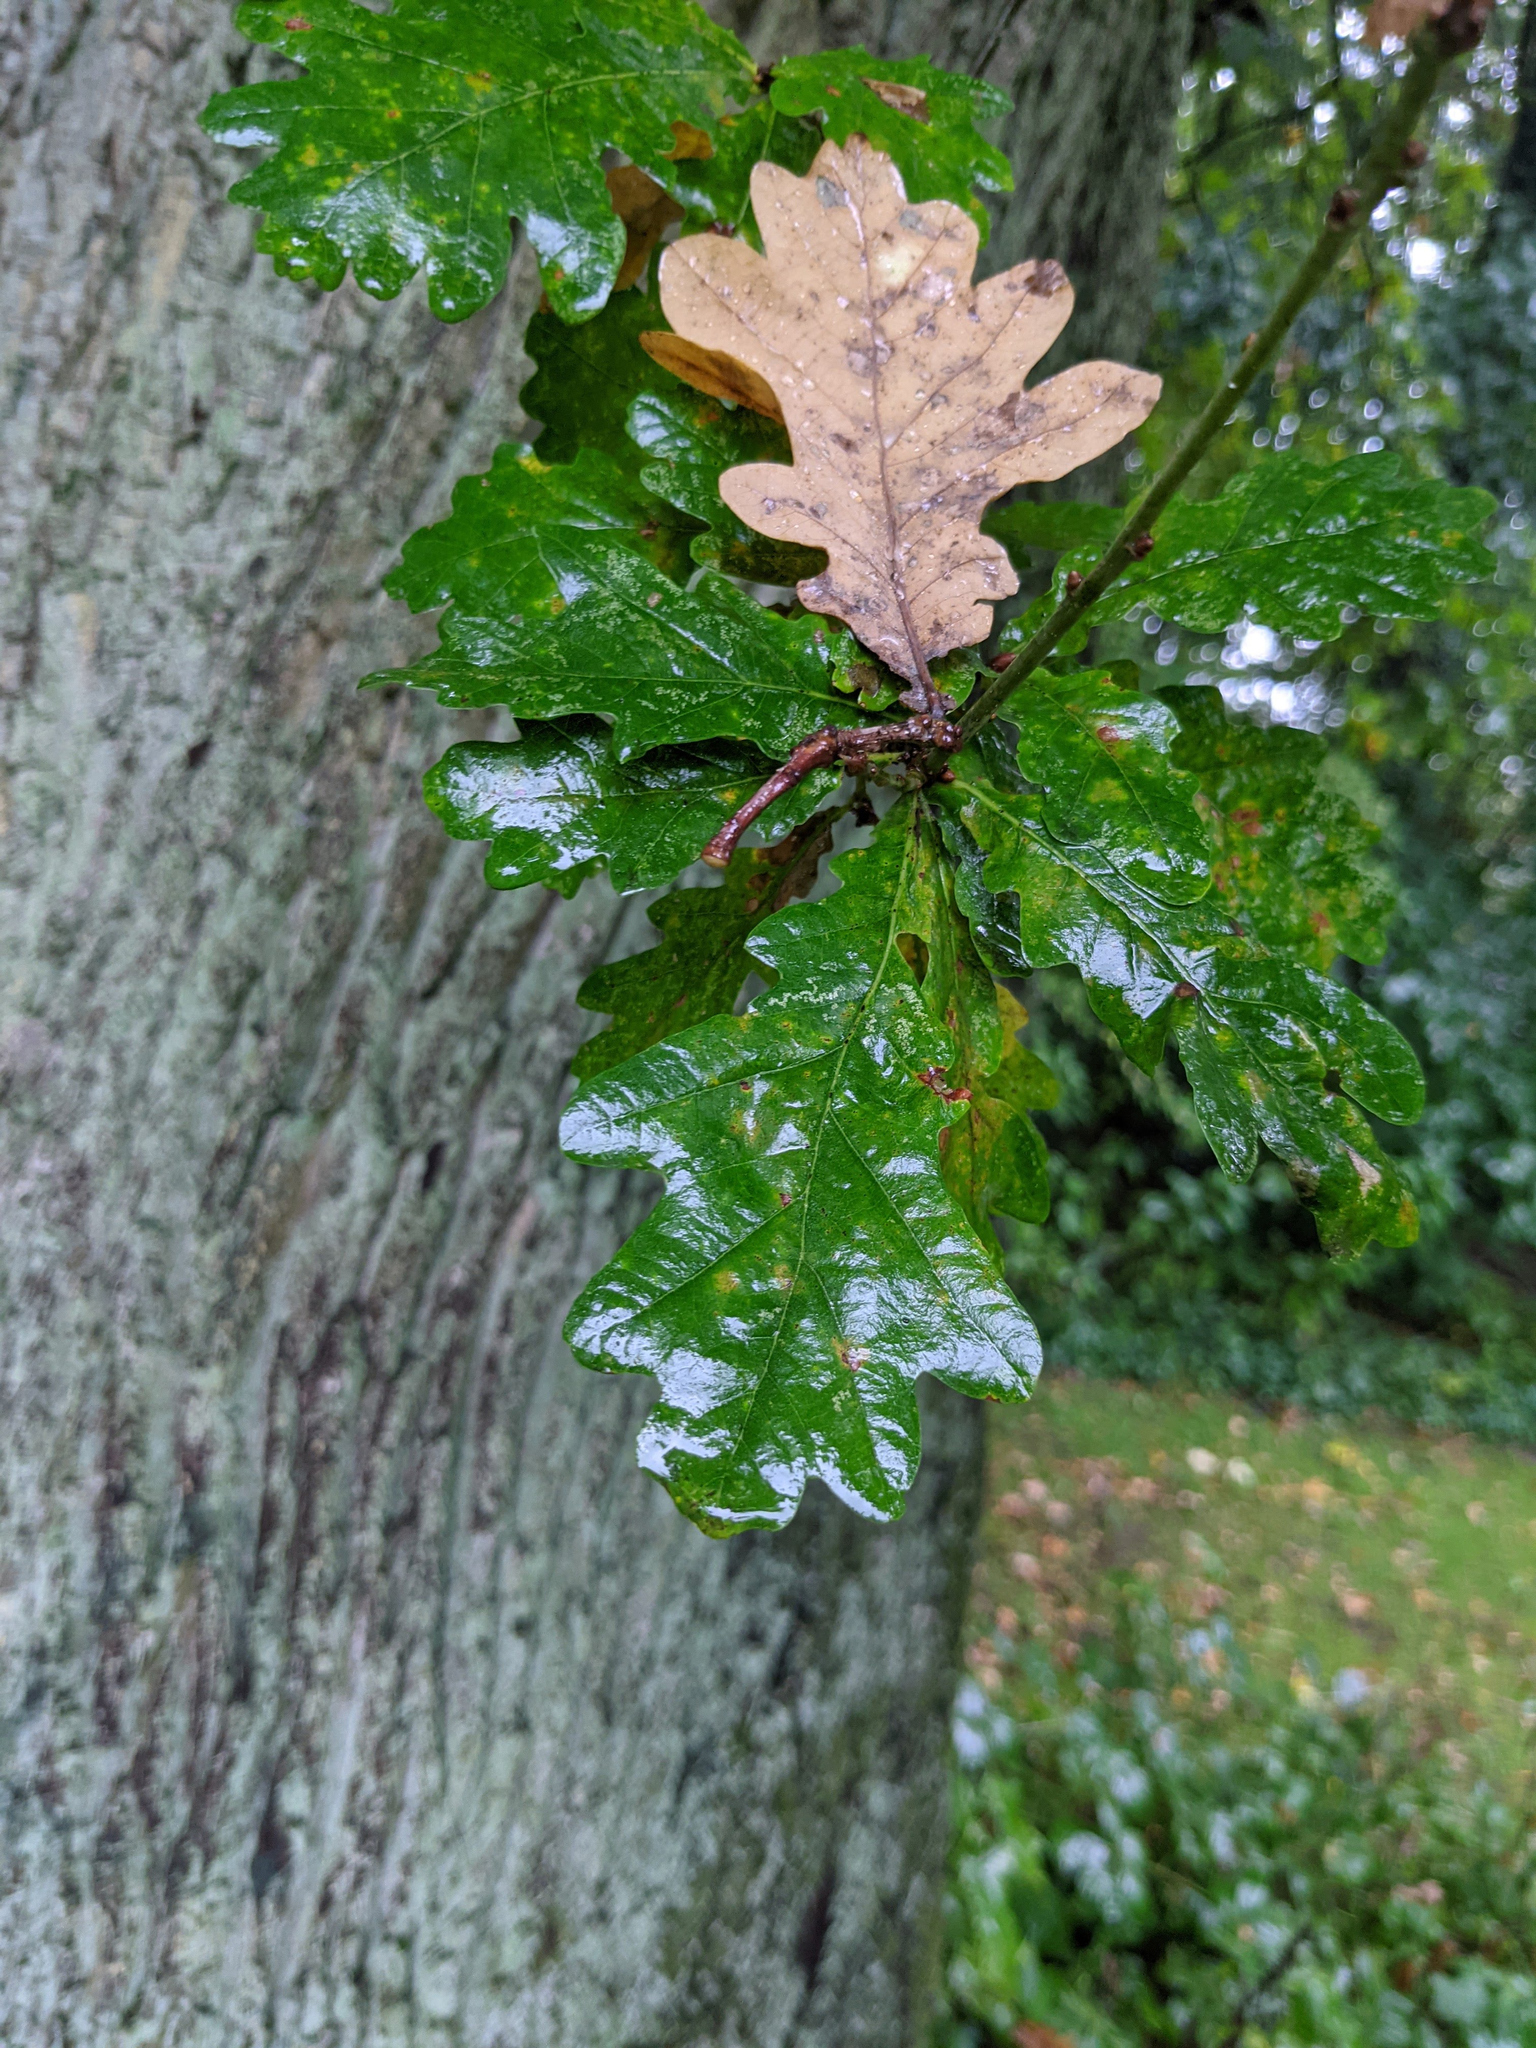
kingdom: Plantae
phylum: Tracheophyta
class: Magnoliopsida
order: Fagales
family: Fagaceae
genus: Quercus
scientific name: Quercus robur
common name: Pedunculate oak
